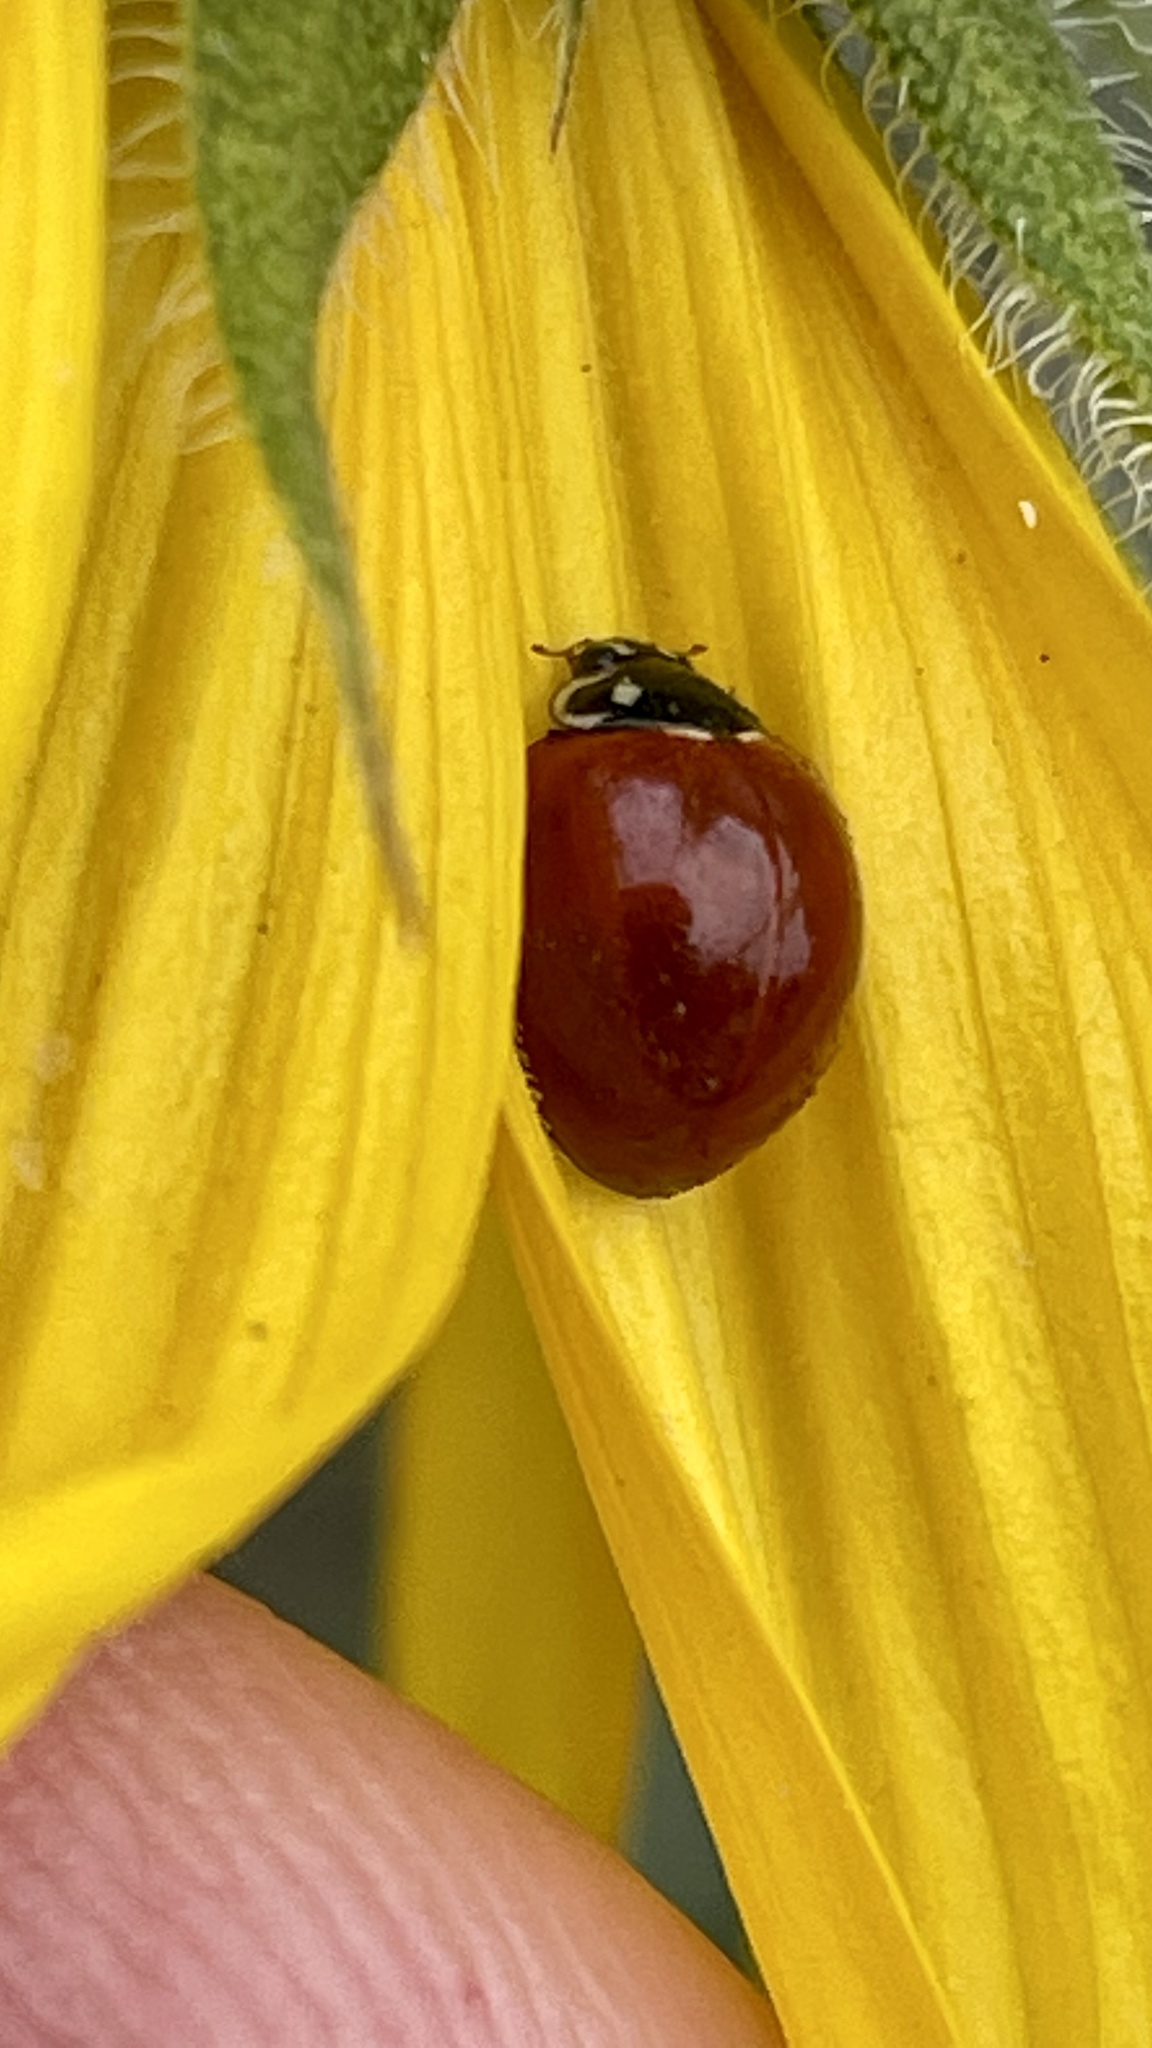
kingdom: Animalia
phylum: Arthropoda
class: Insecta
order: Coleoptera
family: Coccinellidae
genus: Cycloneda
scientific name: Cycloneda sanguinea
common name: Ladybird beetle
